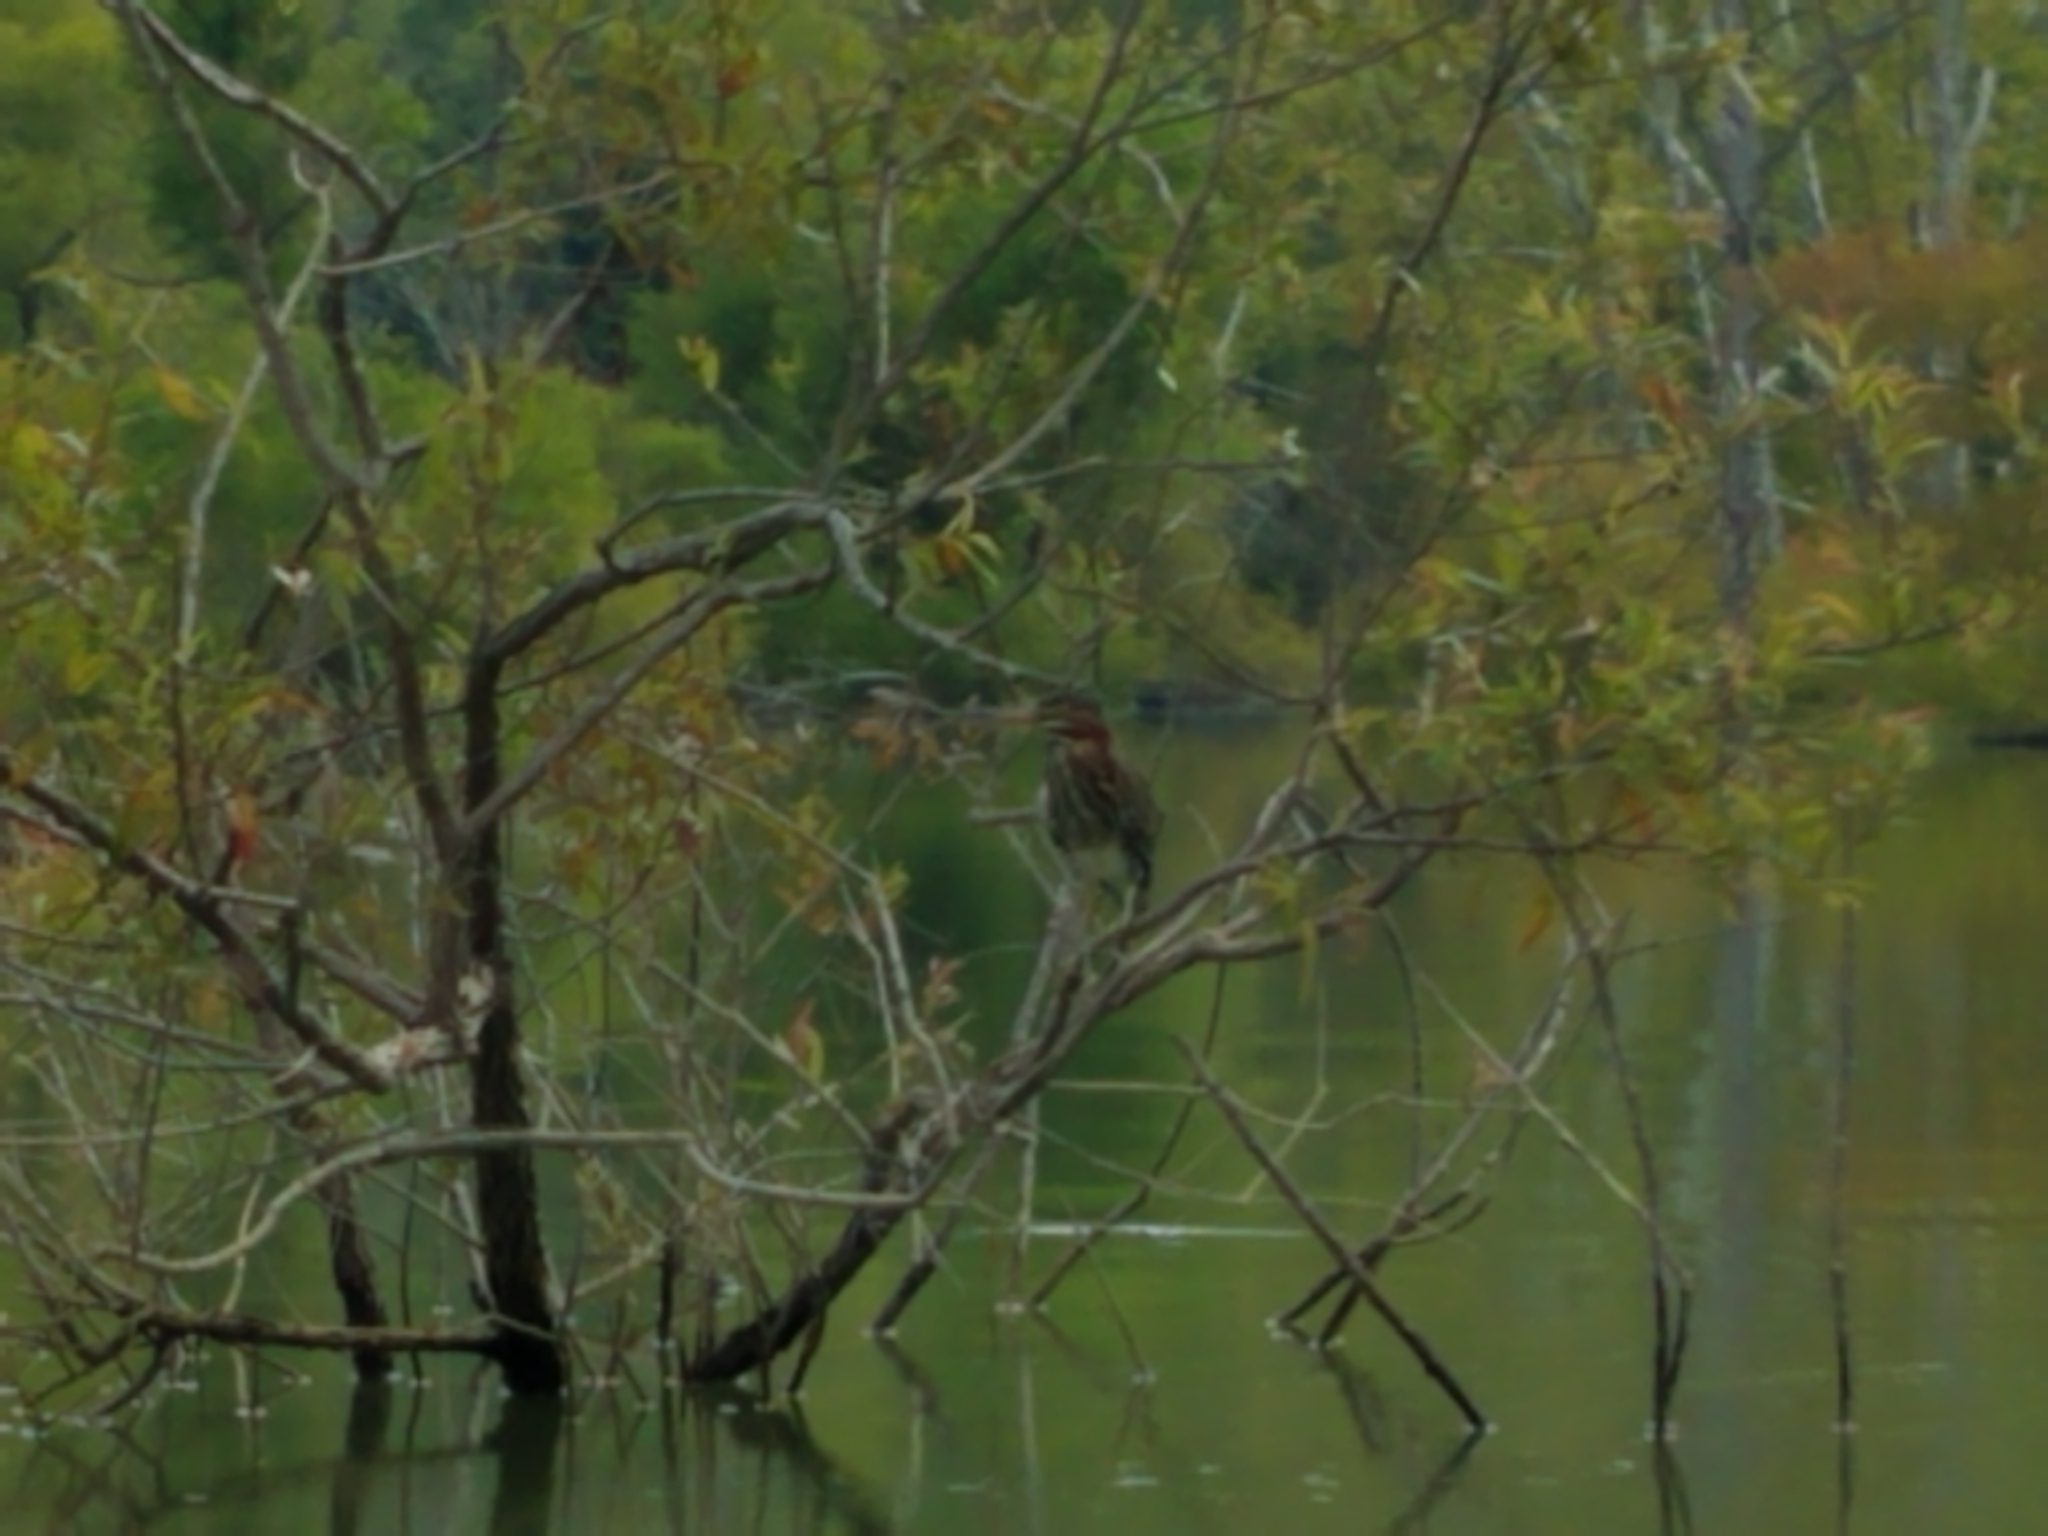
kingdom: Animalia
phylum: Chordata
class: Aves
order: Pelecaniformes
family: Ardeidae
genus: Butorides
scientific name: Butorides virescens
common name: Green heron
